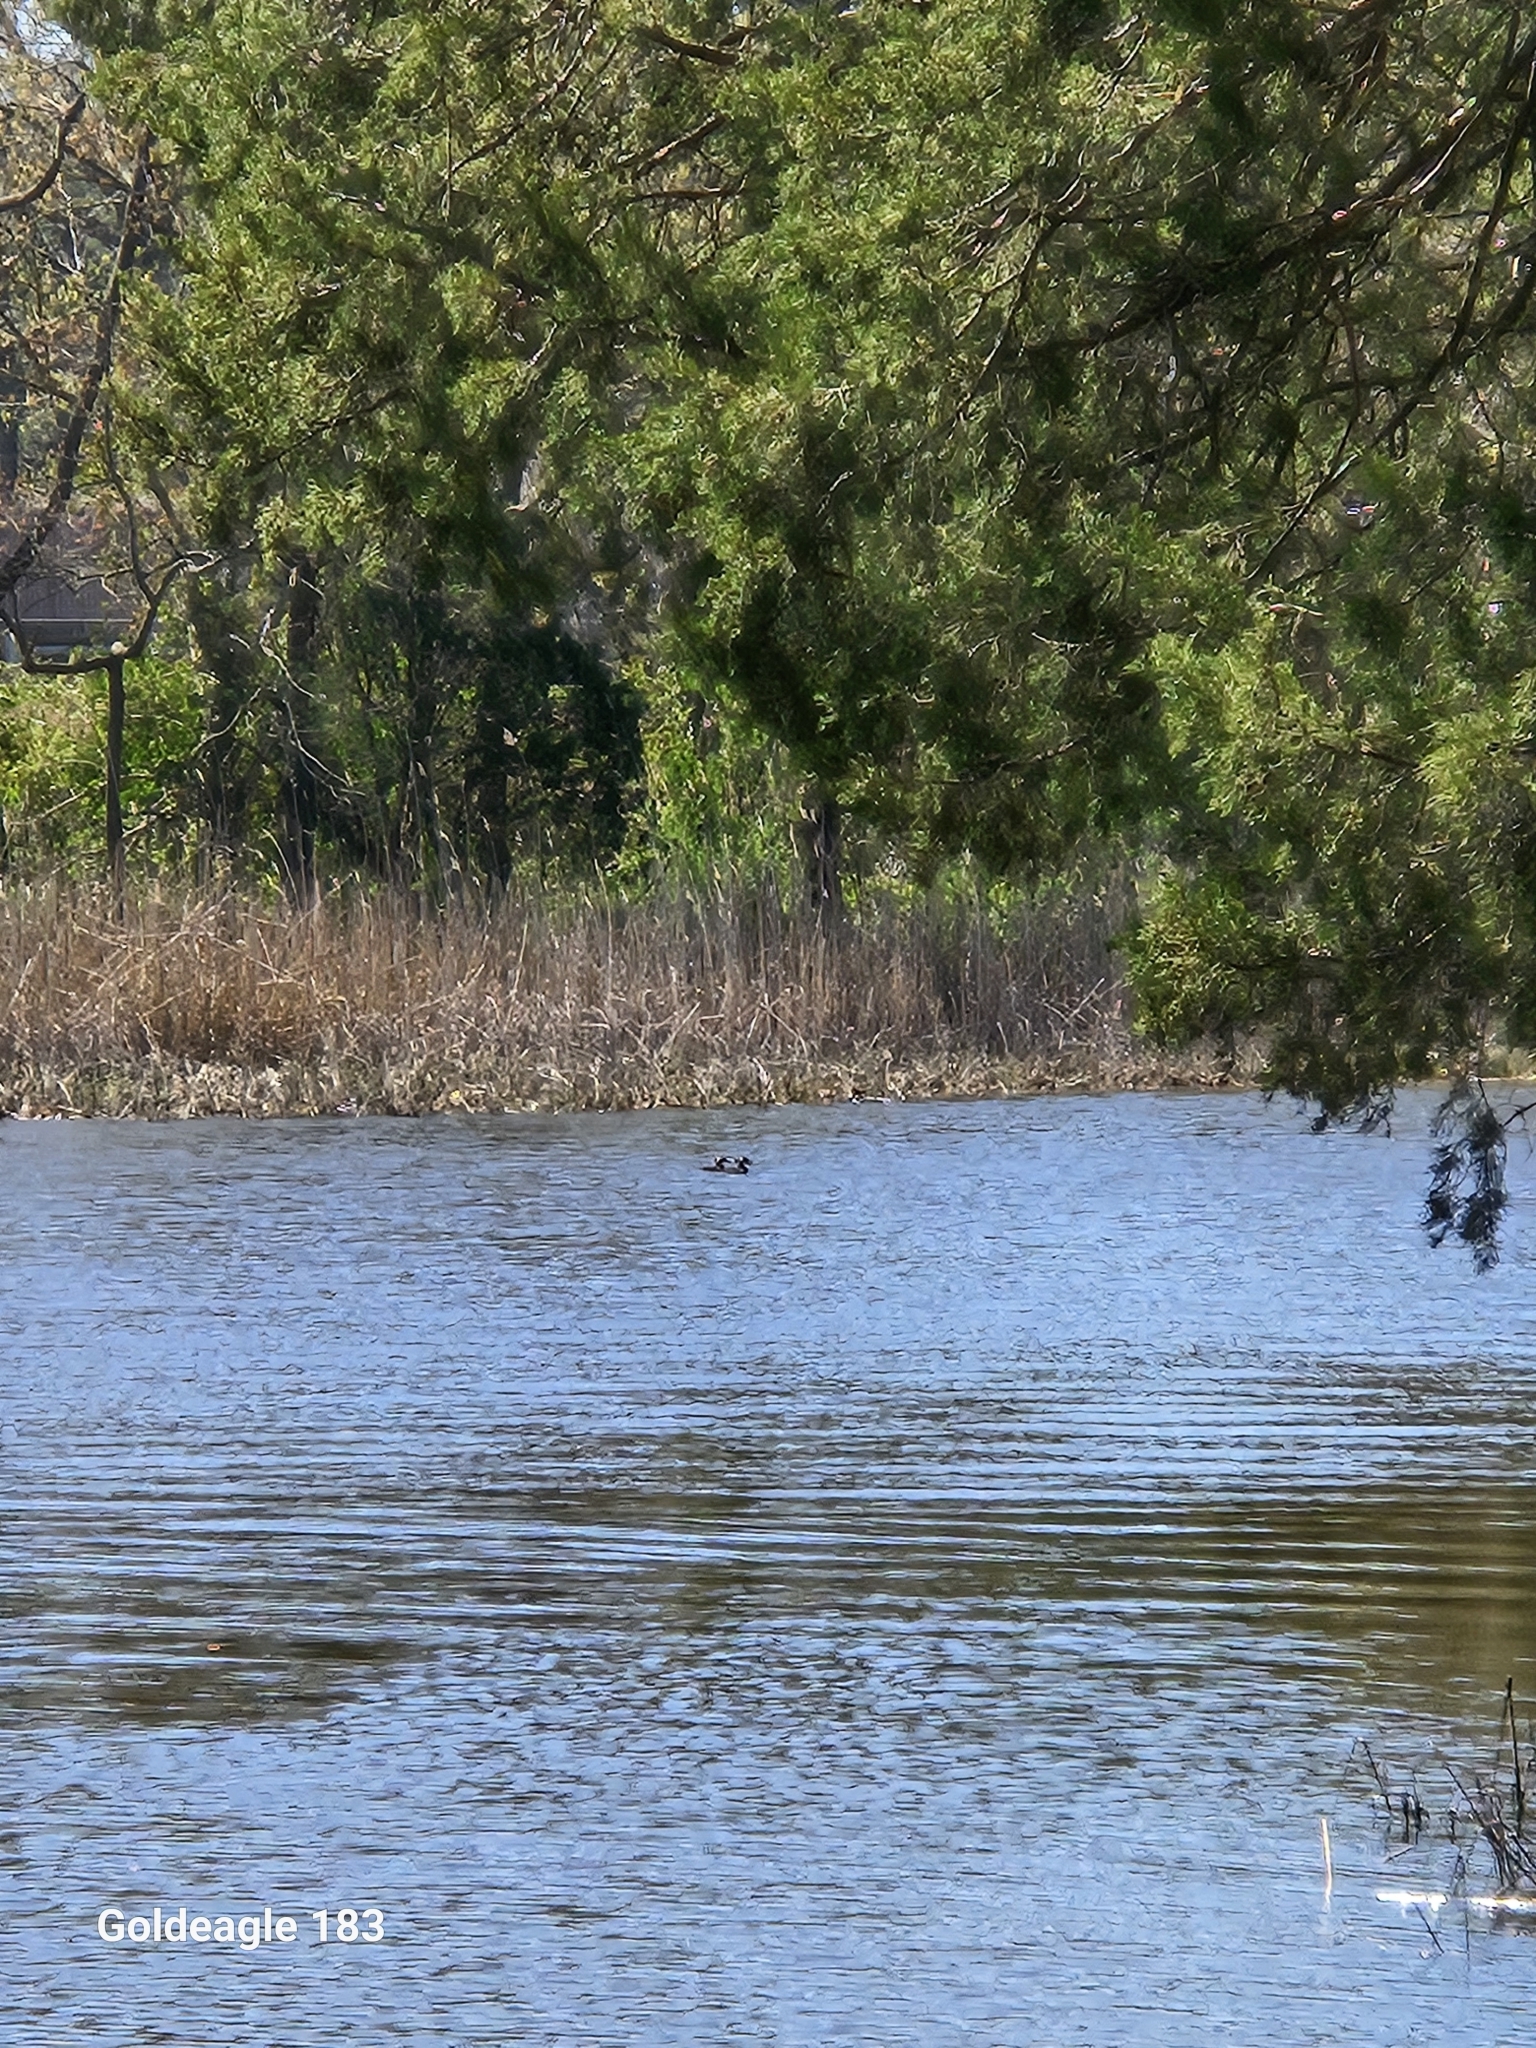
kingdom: Animalia
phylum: Chordata
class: Aves
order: Anseriformes
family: Anatidae
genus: Lophodytes
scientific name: Lophodytes cucullatus
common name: Hooded merganser
